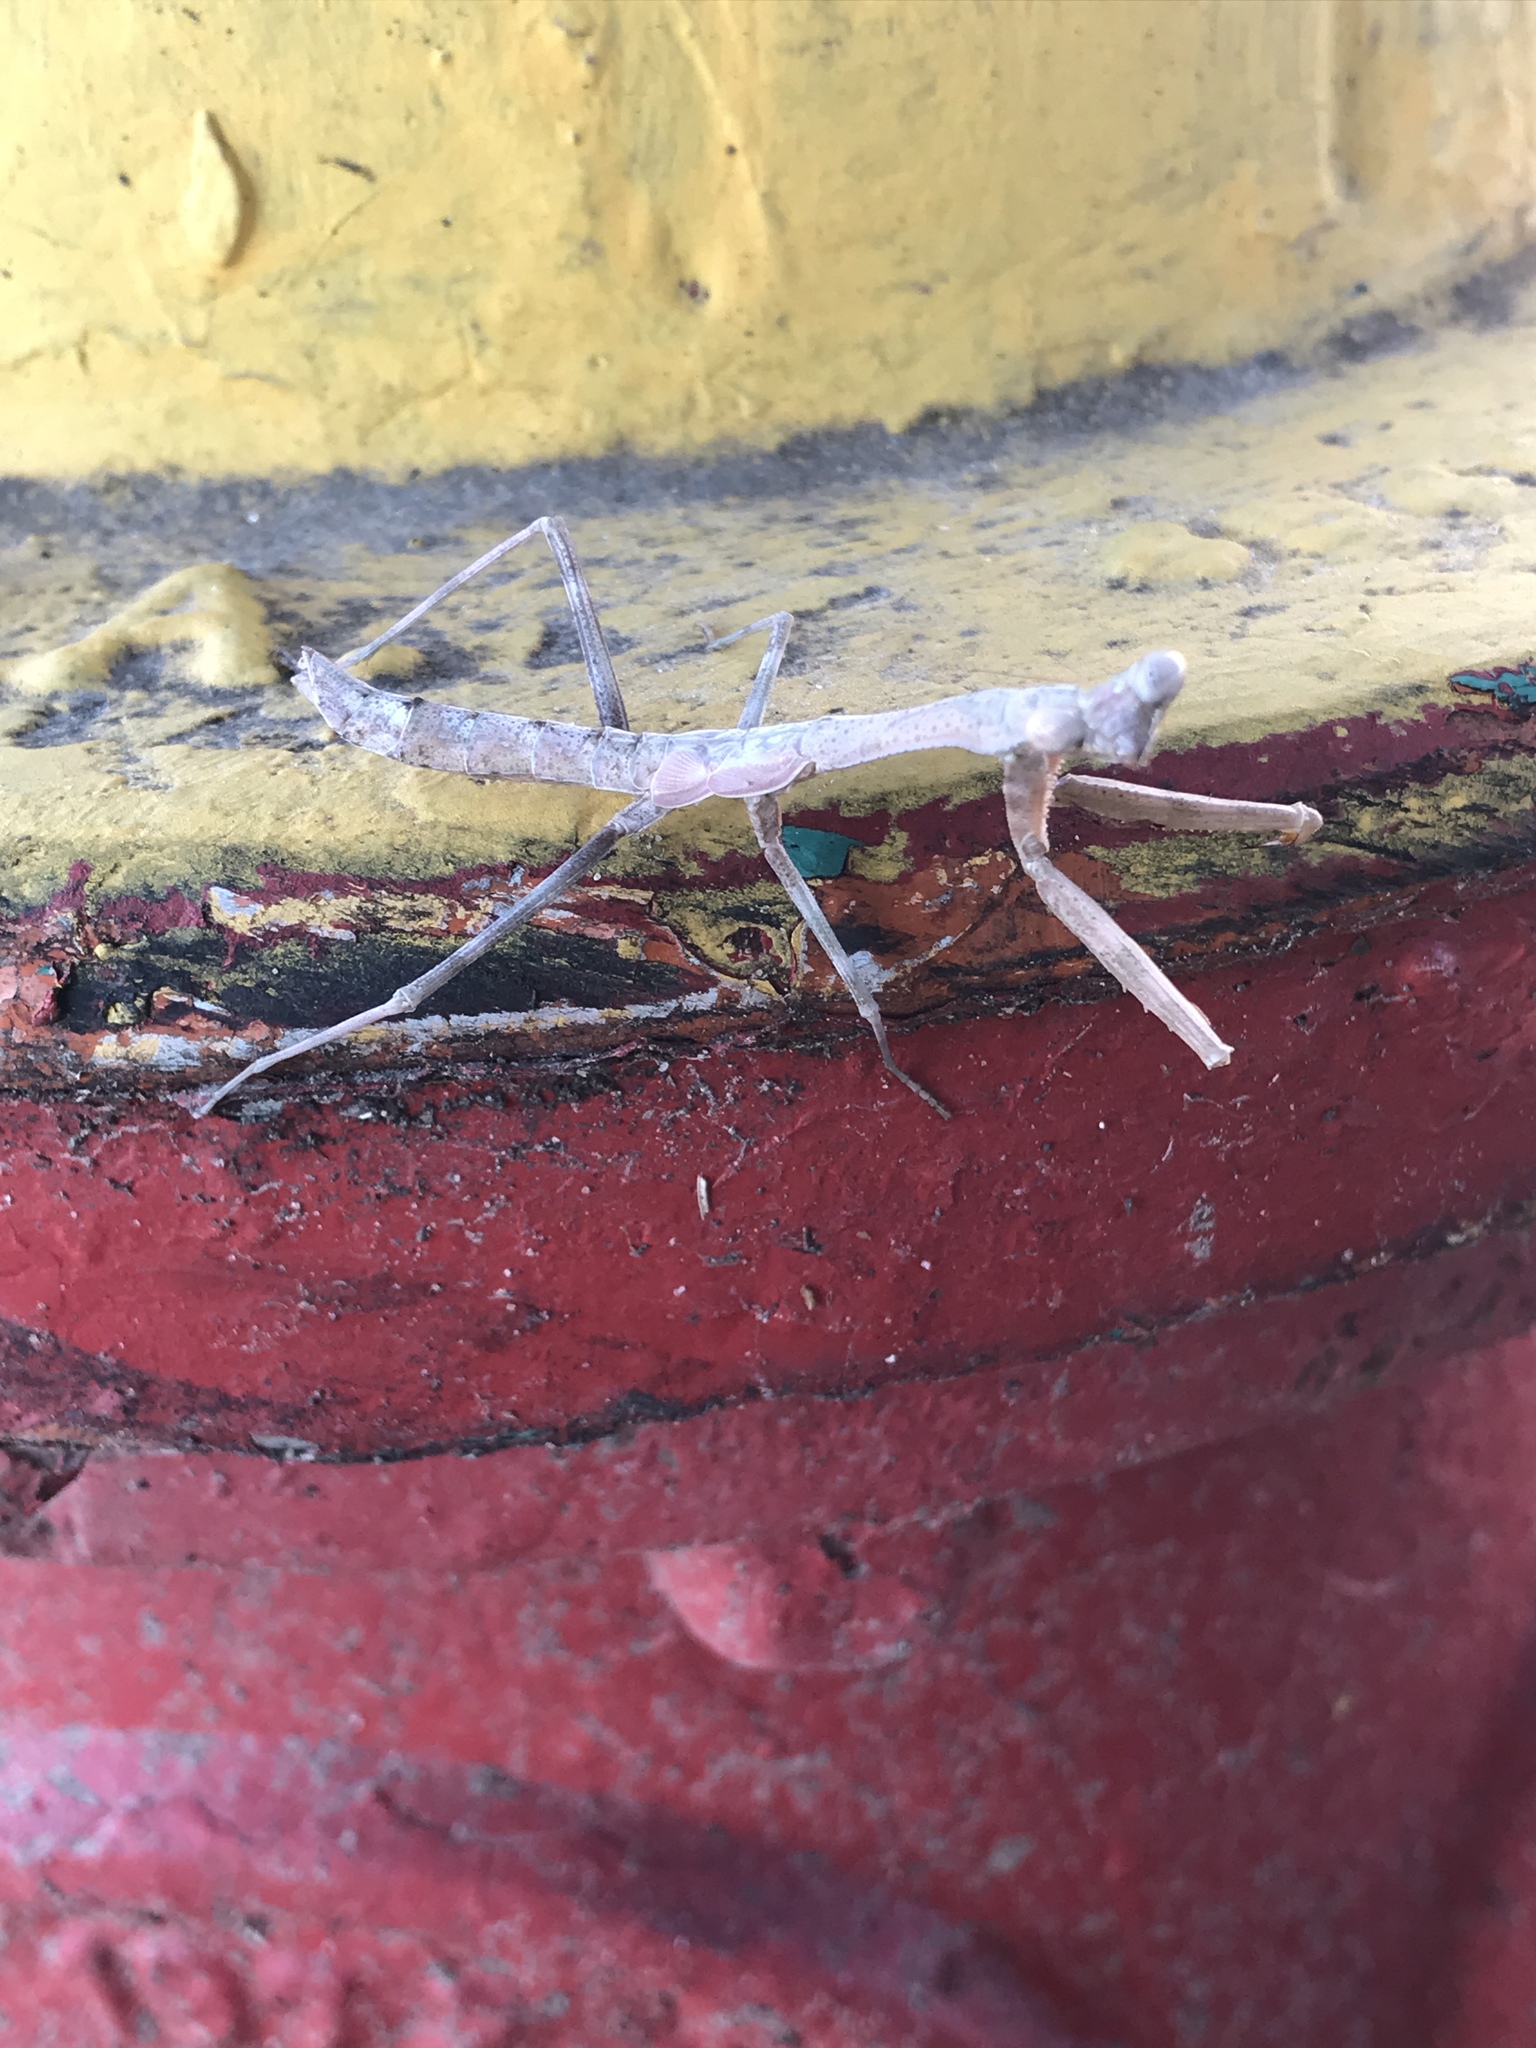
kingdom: Animalia
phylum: Arthropoda
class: Insecta
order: Mantodea
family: Mantidae
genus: Stagmomantis
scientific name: Stagmomantis carolina
